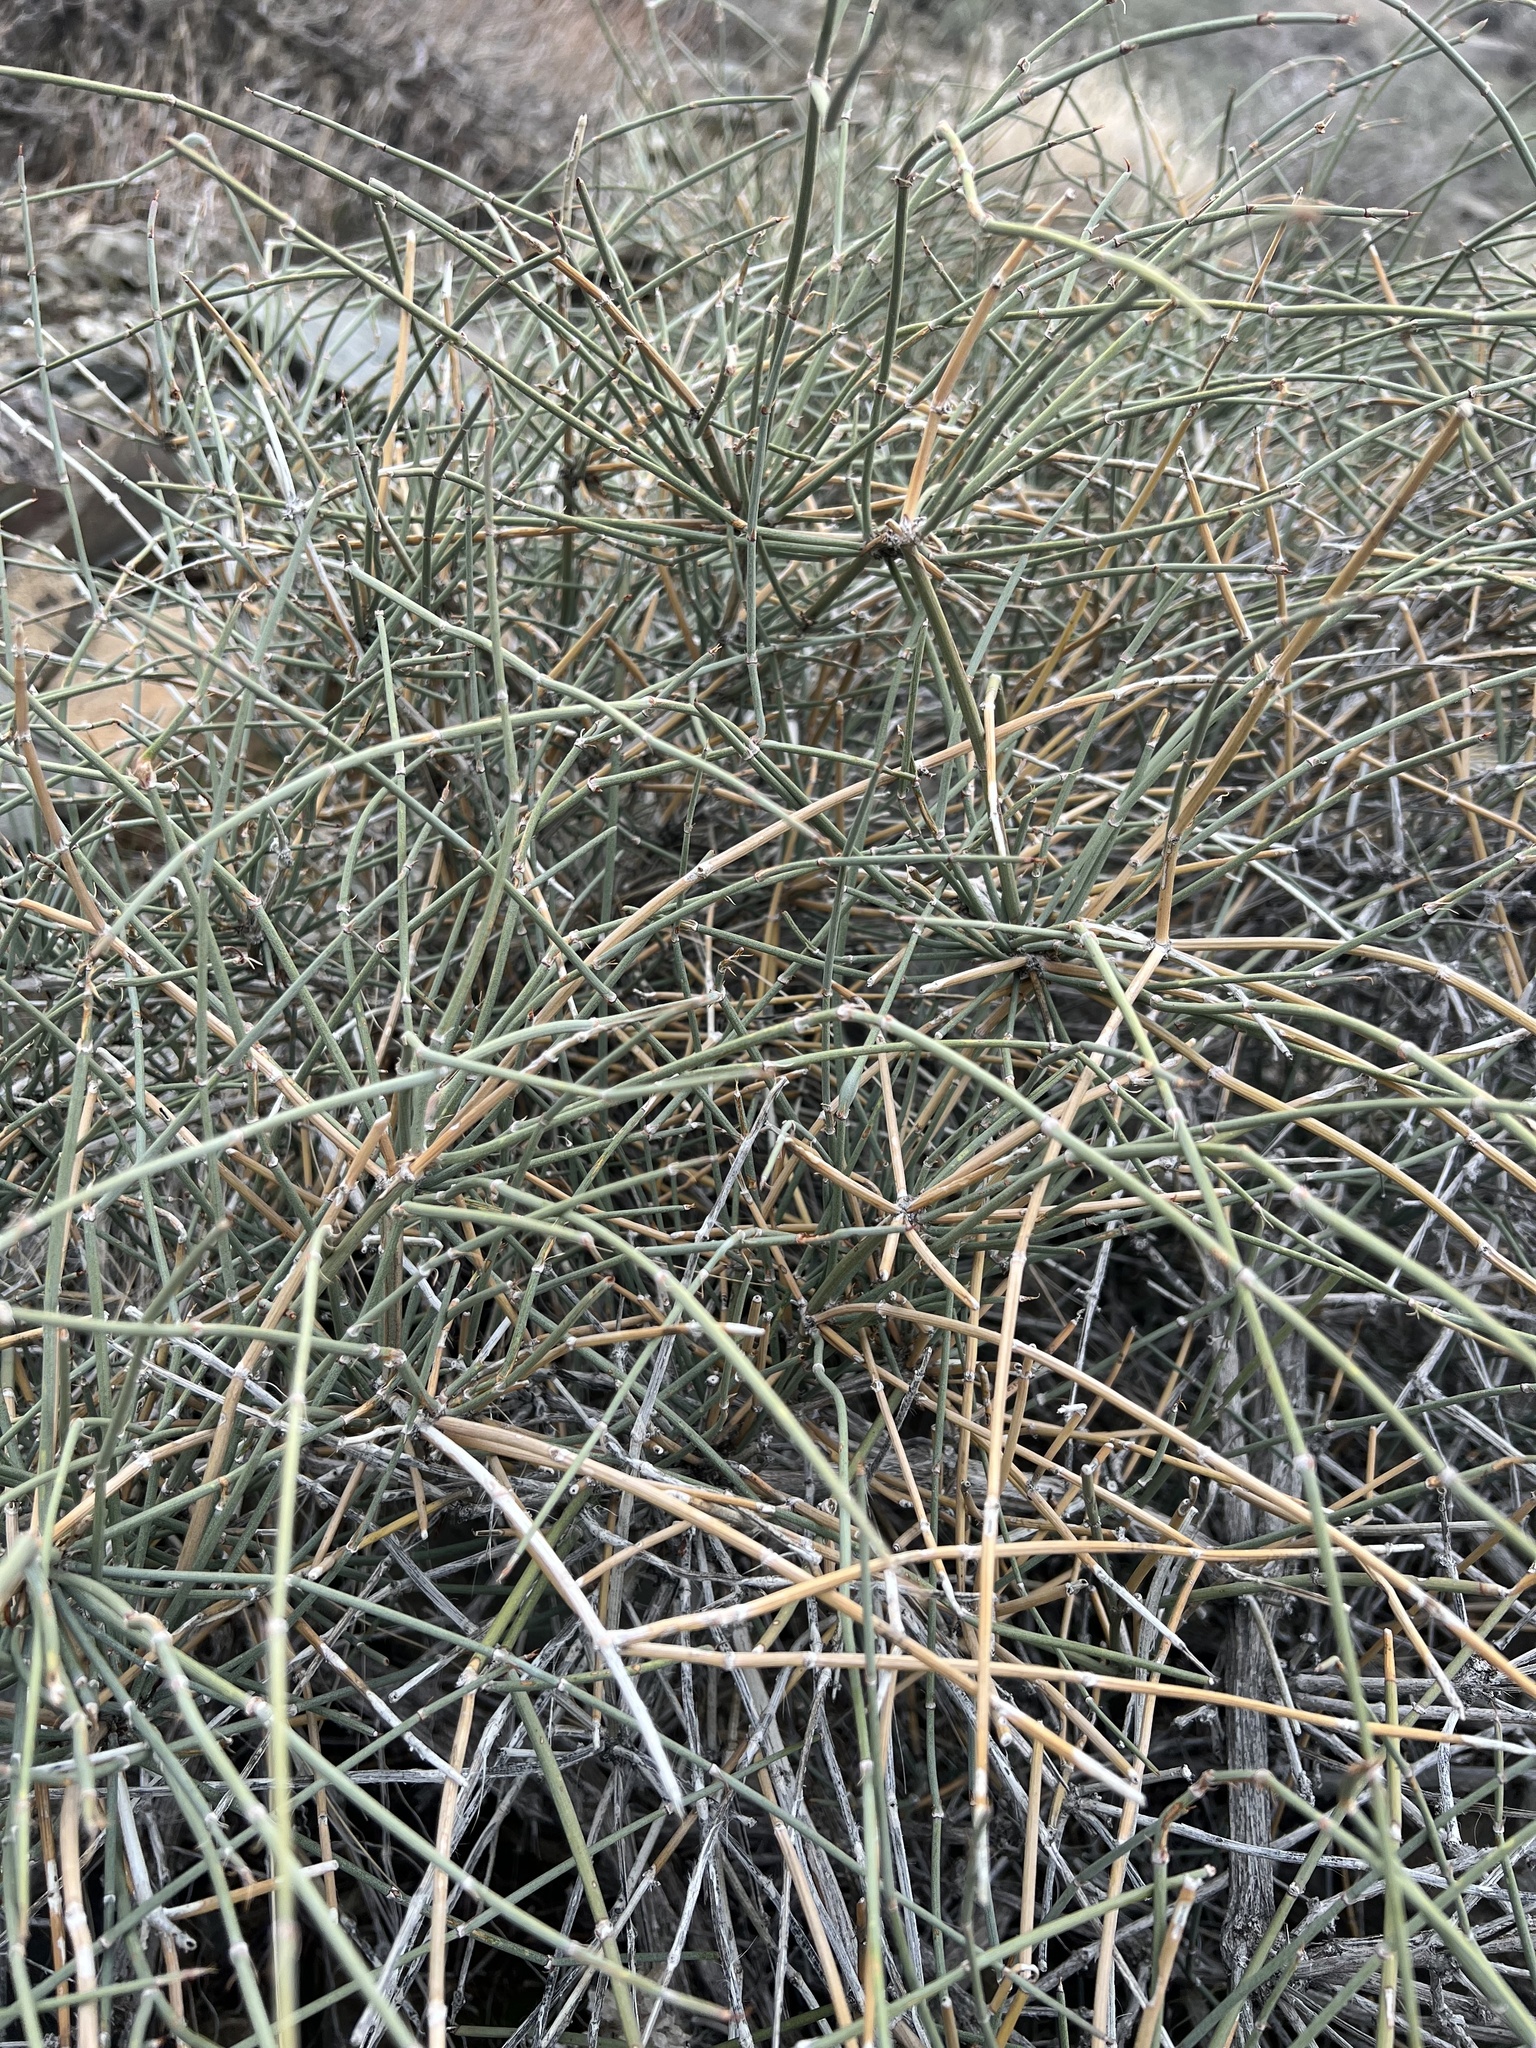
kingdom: Plantae
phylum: Tracheophyta
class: Gnetopsida
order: Ephedrales
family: Ephedraceae
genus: Ephedra
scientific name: Ephedra nevadensis
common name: Gray ephedra
